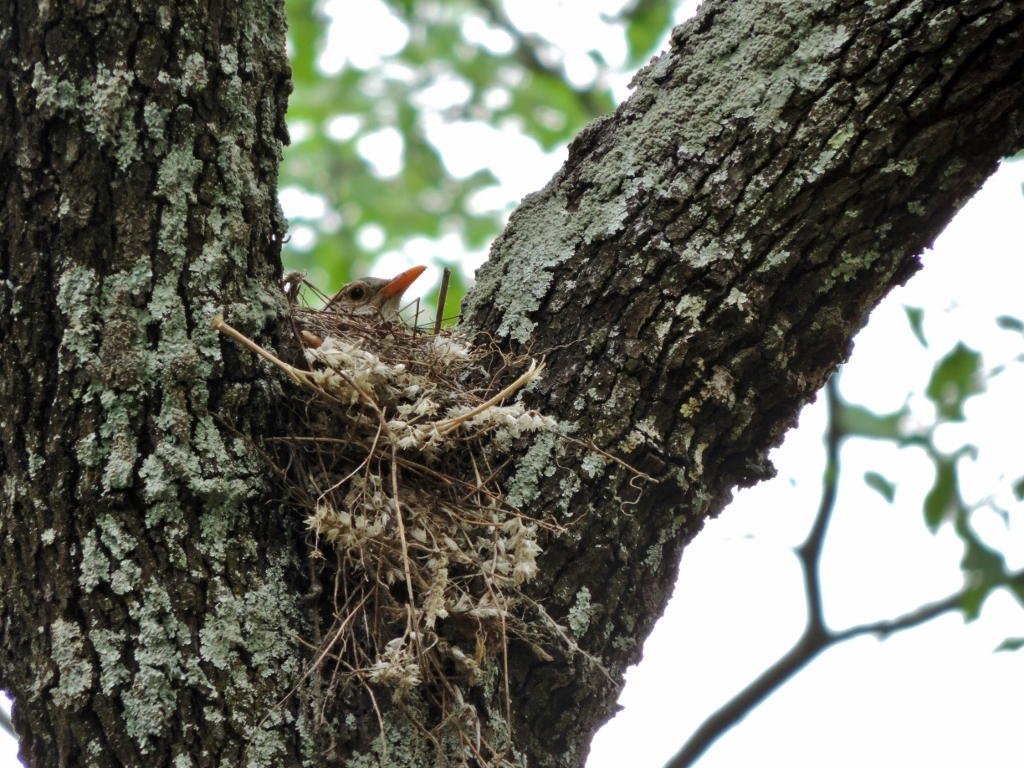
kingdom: Animalia
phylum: Chordata
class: Aves
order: Passeriformes
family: Turdidae
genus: Turdus
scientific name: Turdus libonyana
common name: Kurrichane thrush
